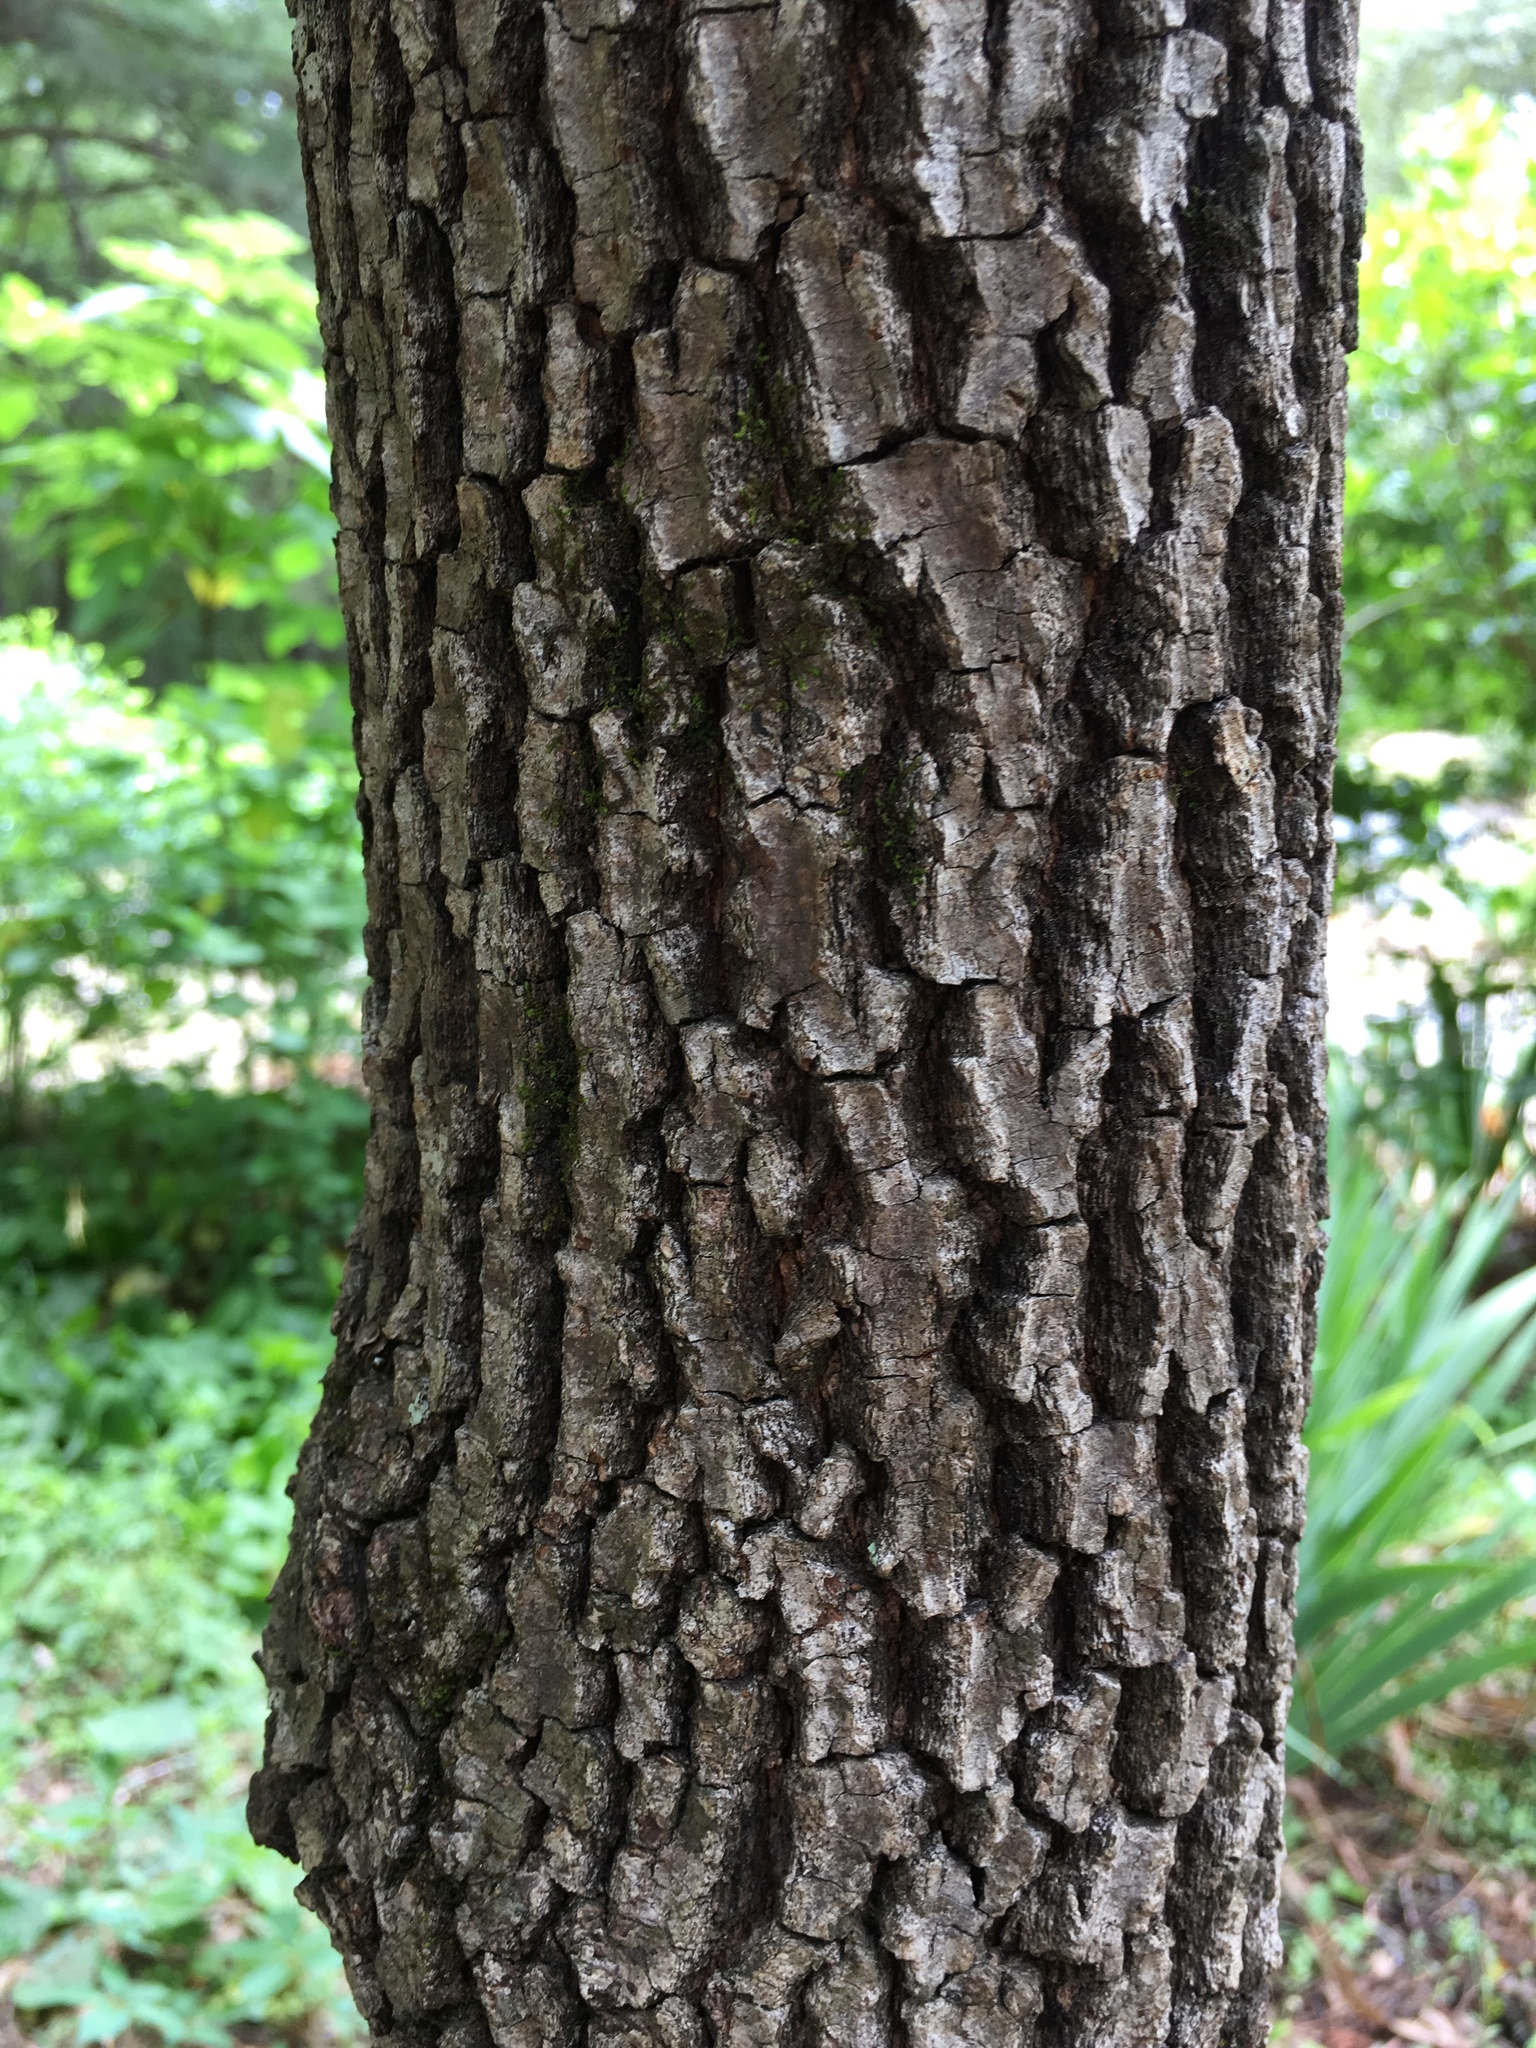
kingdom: Plantae
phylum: Tracheophyta
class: Magnoliopsida
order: Ericales
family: Ebenaceae
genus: Diospyros
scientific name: Diospyros virginiana
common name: Persimmon
